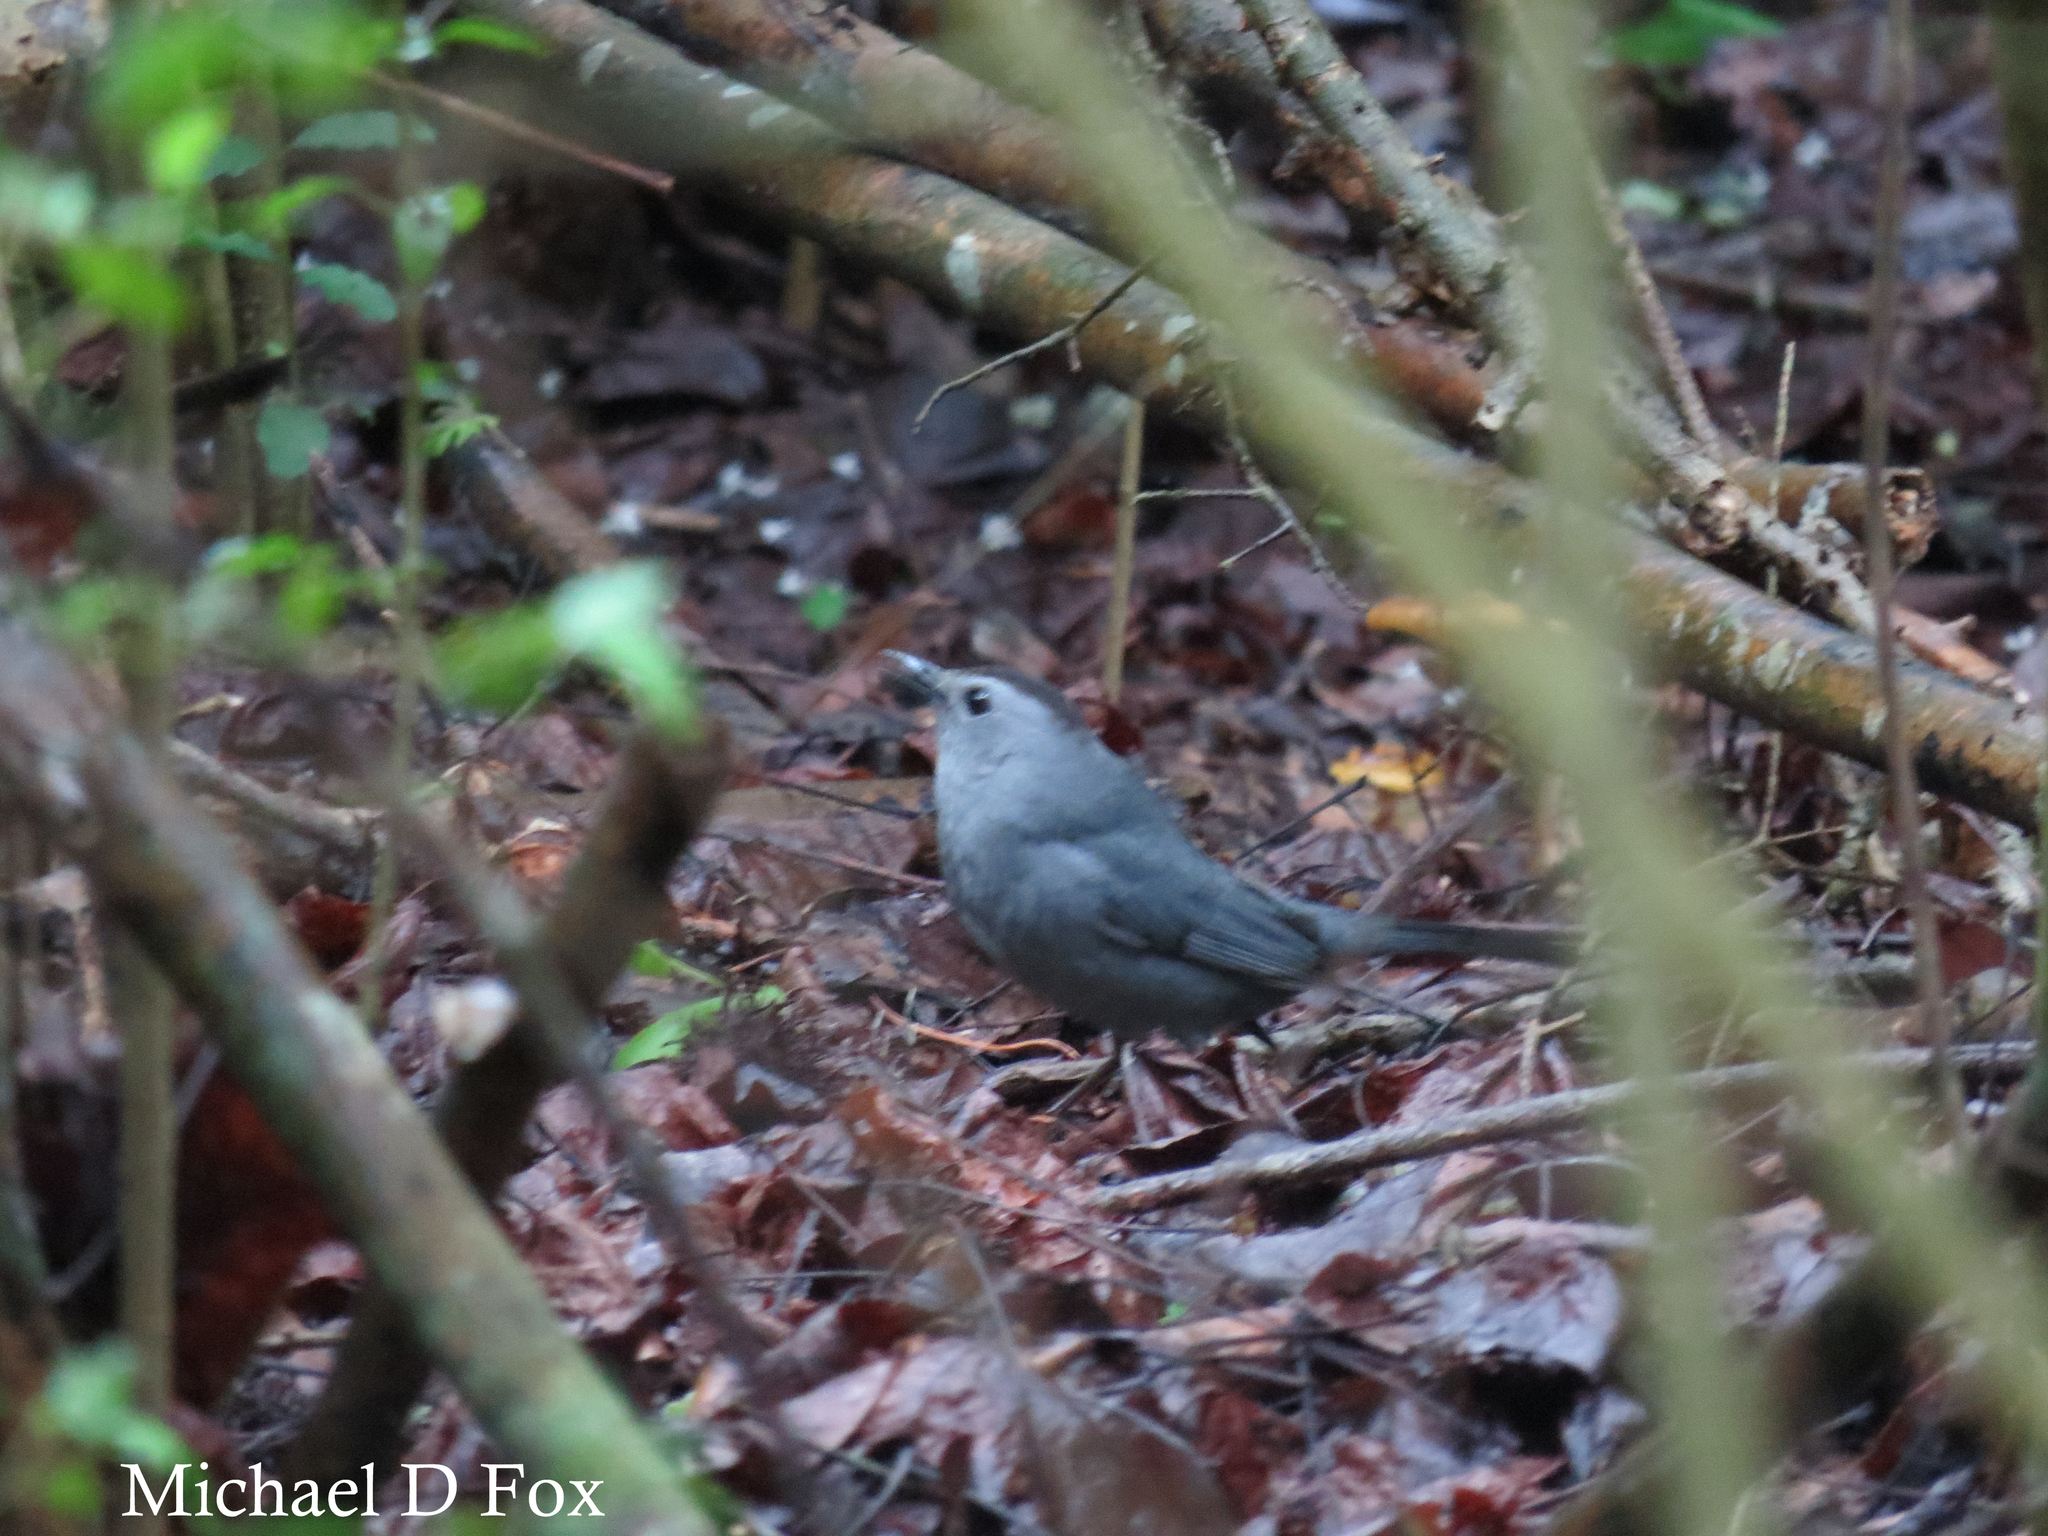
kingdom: Animalia
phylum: Chordata
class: Aves
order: Passeriformes
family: Mimidae
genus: Dumetella
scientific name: Dumetella carolinensis
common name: Gray catbird
